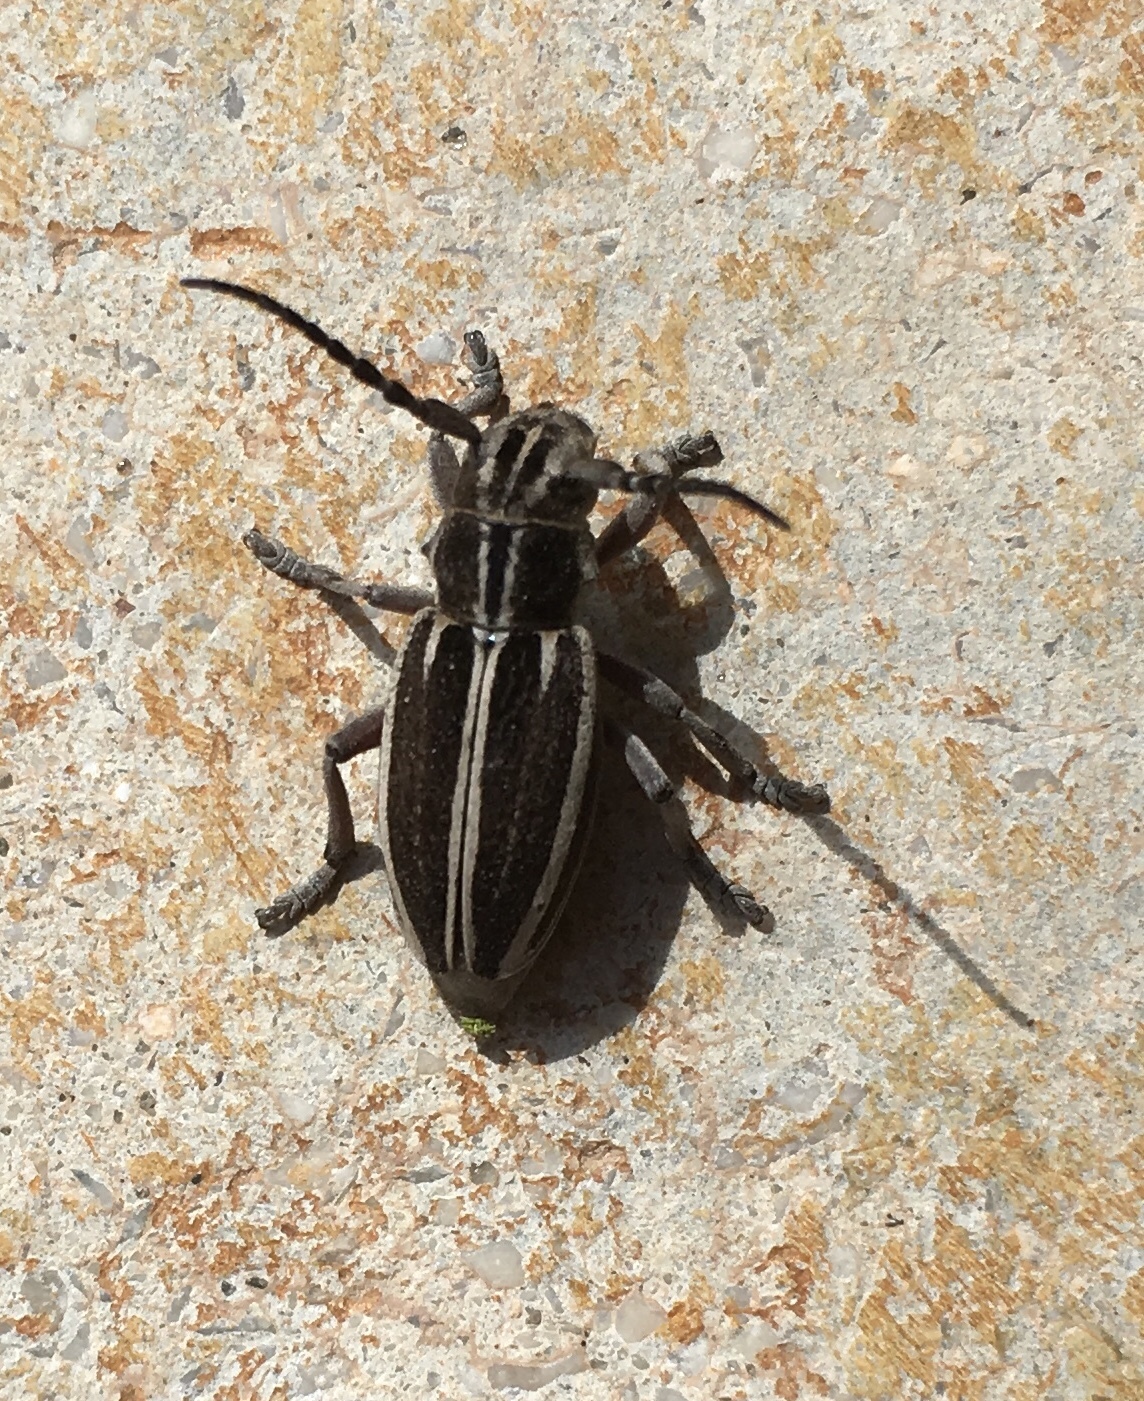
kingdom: Animalia
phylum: Arthropoda
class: Insecta
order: Coleoptera
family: Cerambycidae
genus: Iberodorcadion
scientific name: Iberodorcadion molitor
